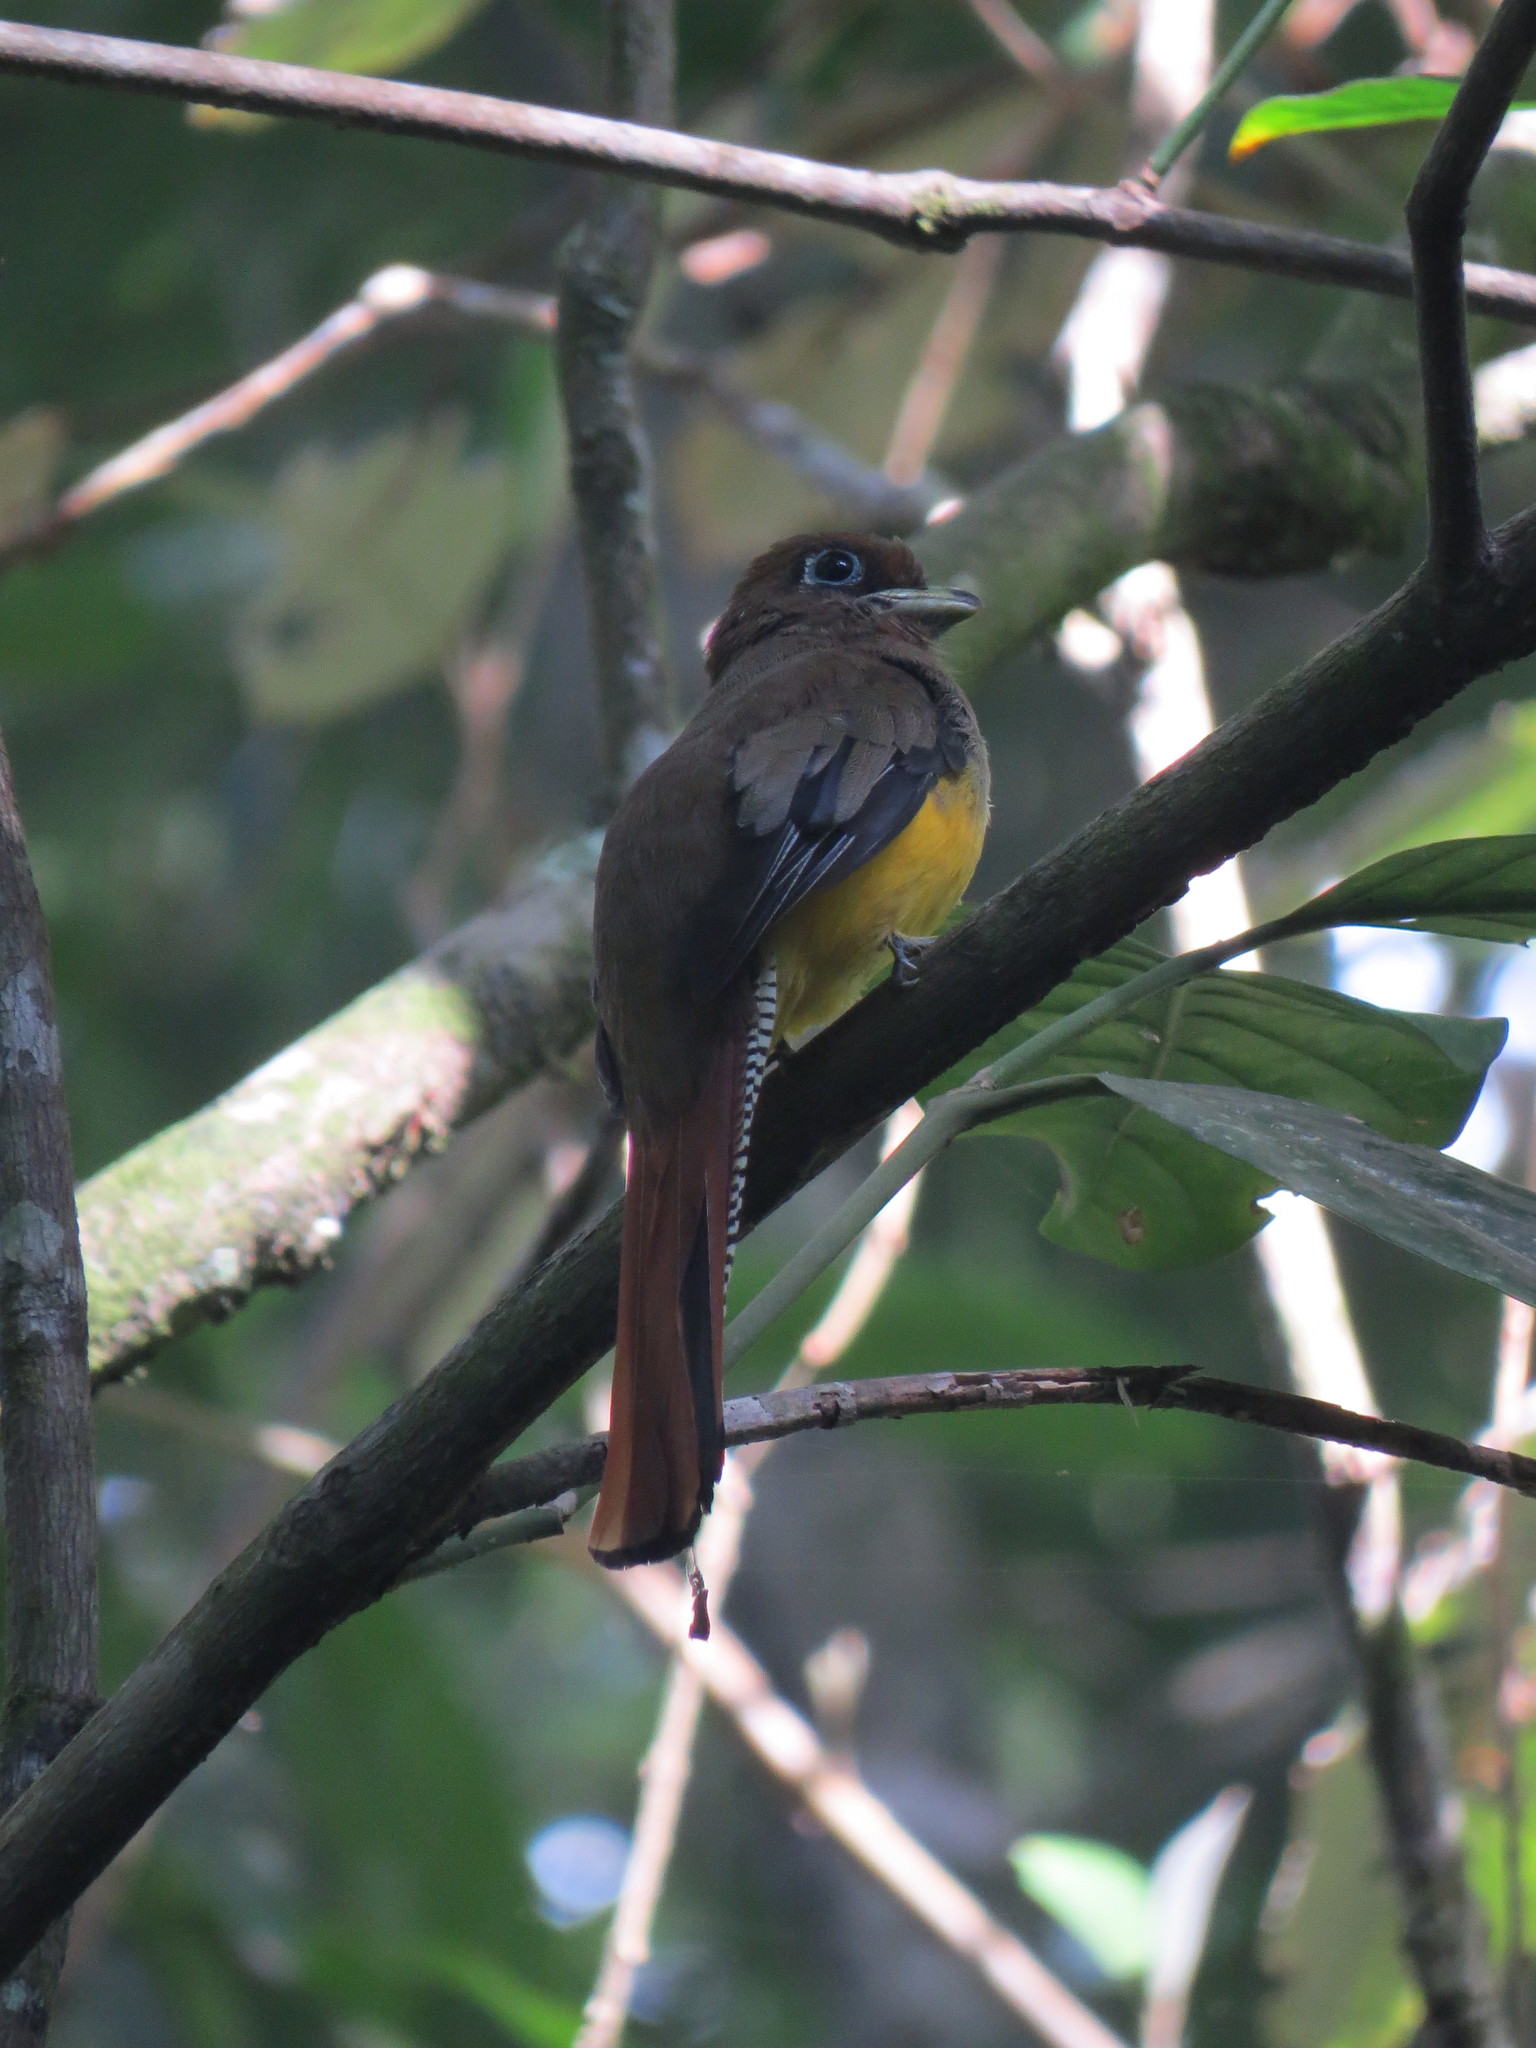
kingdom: Animalia
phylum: Chordata
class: Aves
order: Trogoniformes
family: Trogonidae
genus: Trogon
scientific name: Trogon rufus
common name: Black-throated trogon
